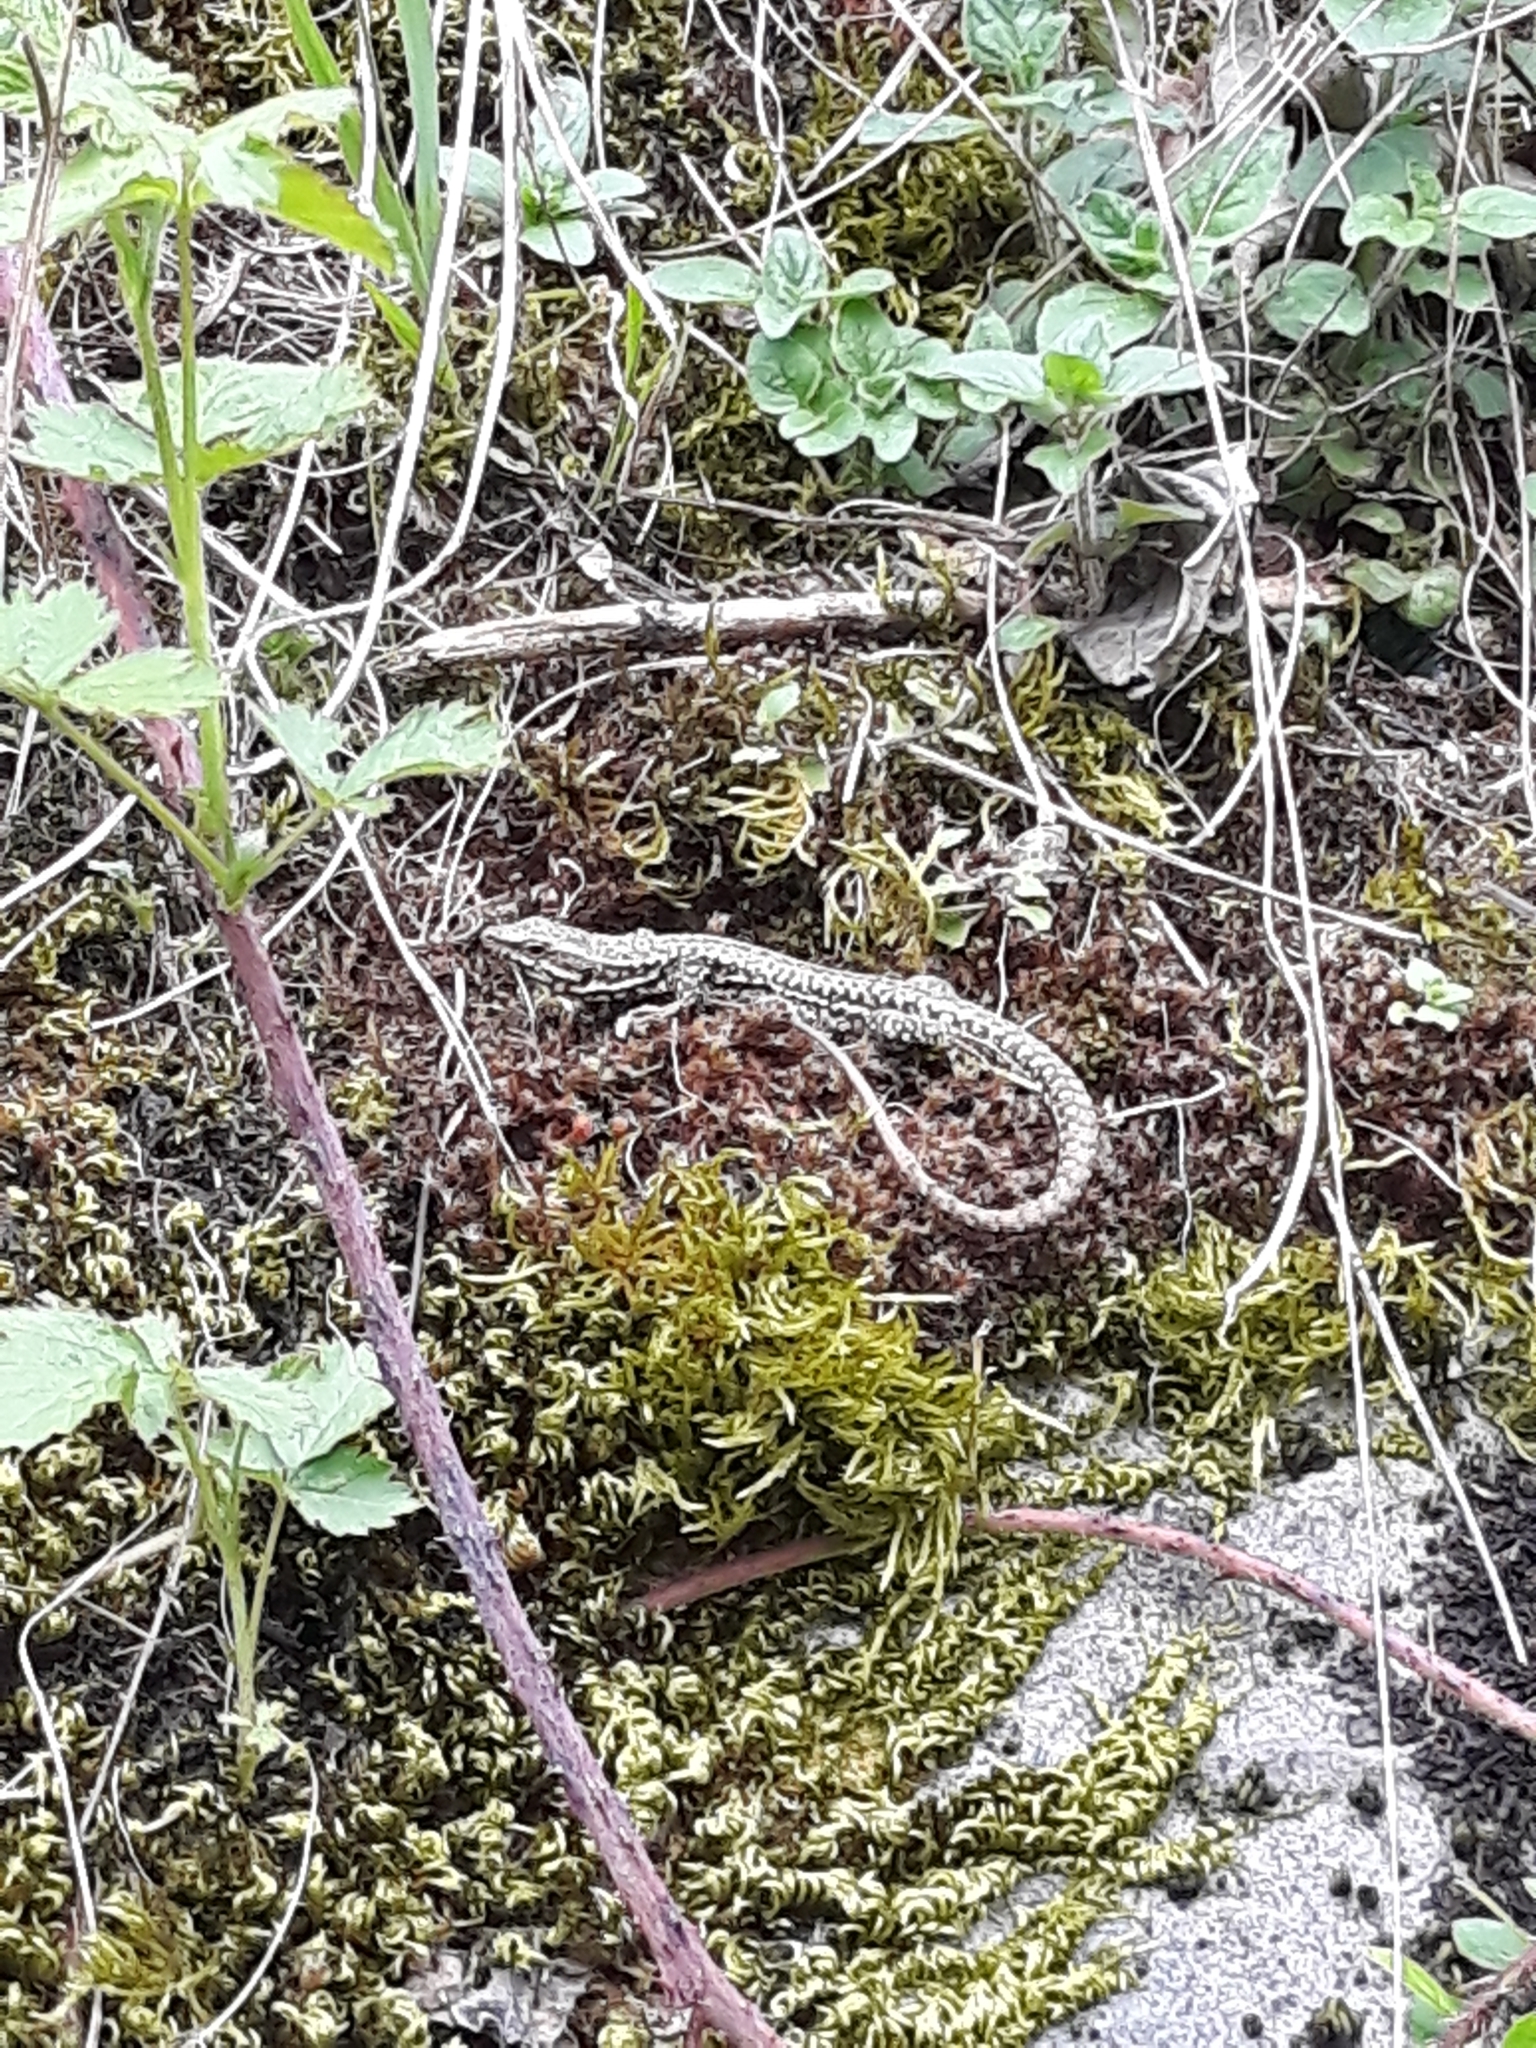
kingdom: Animalia
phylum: Chordata
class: Squamata
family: Lacertidae
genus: Podarcis
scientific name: Podarcis muralis
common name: Common wall lizard
